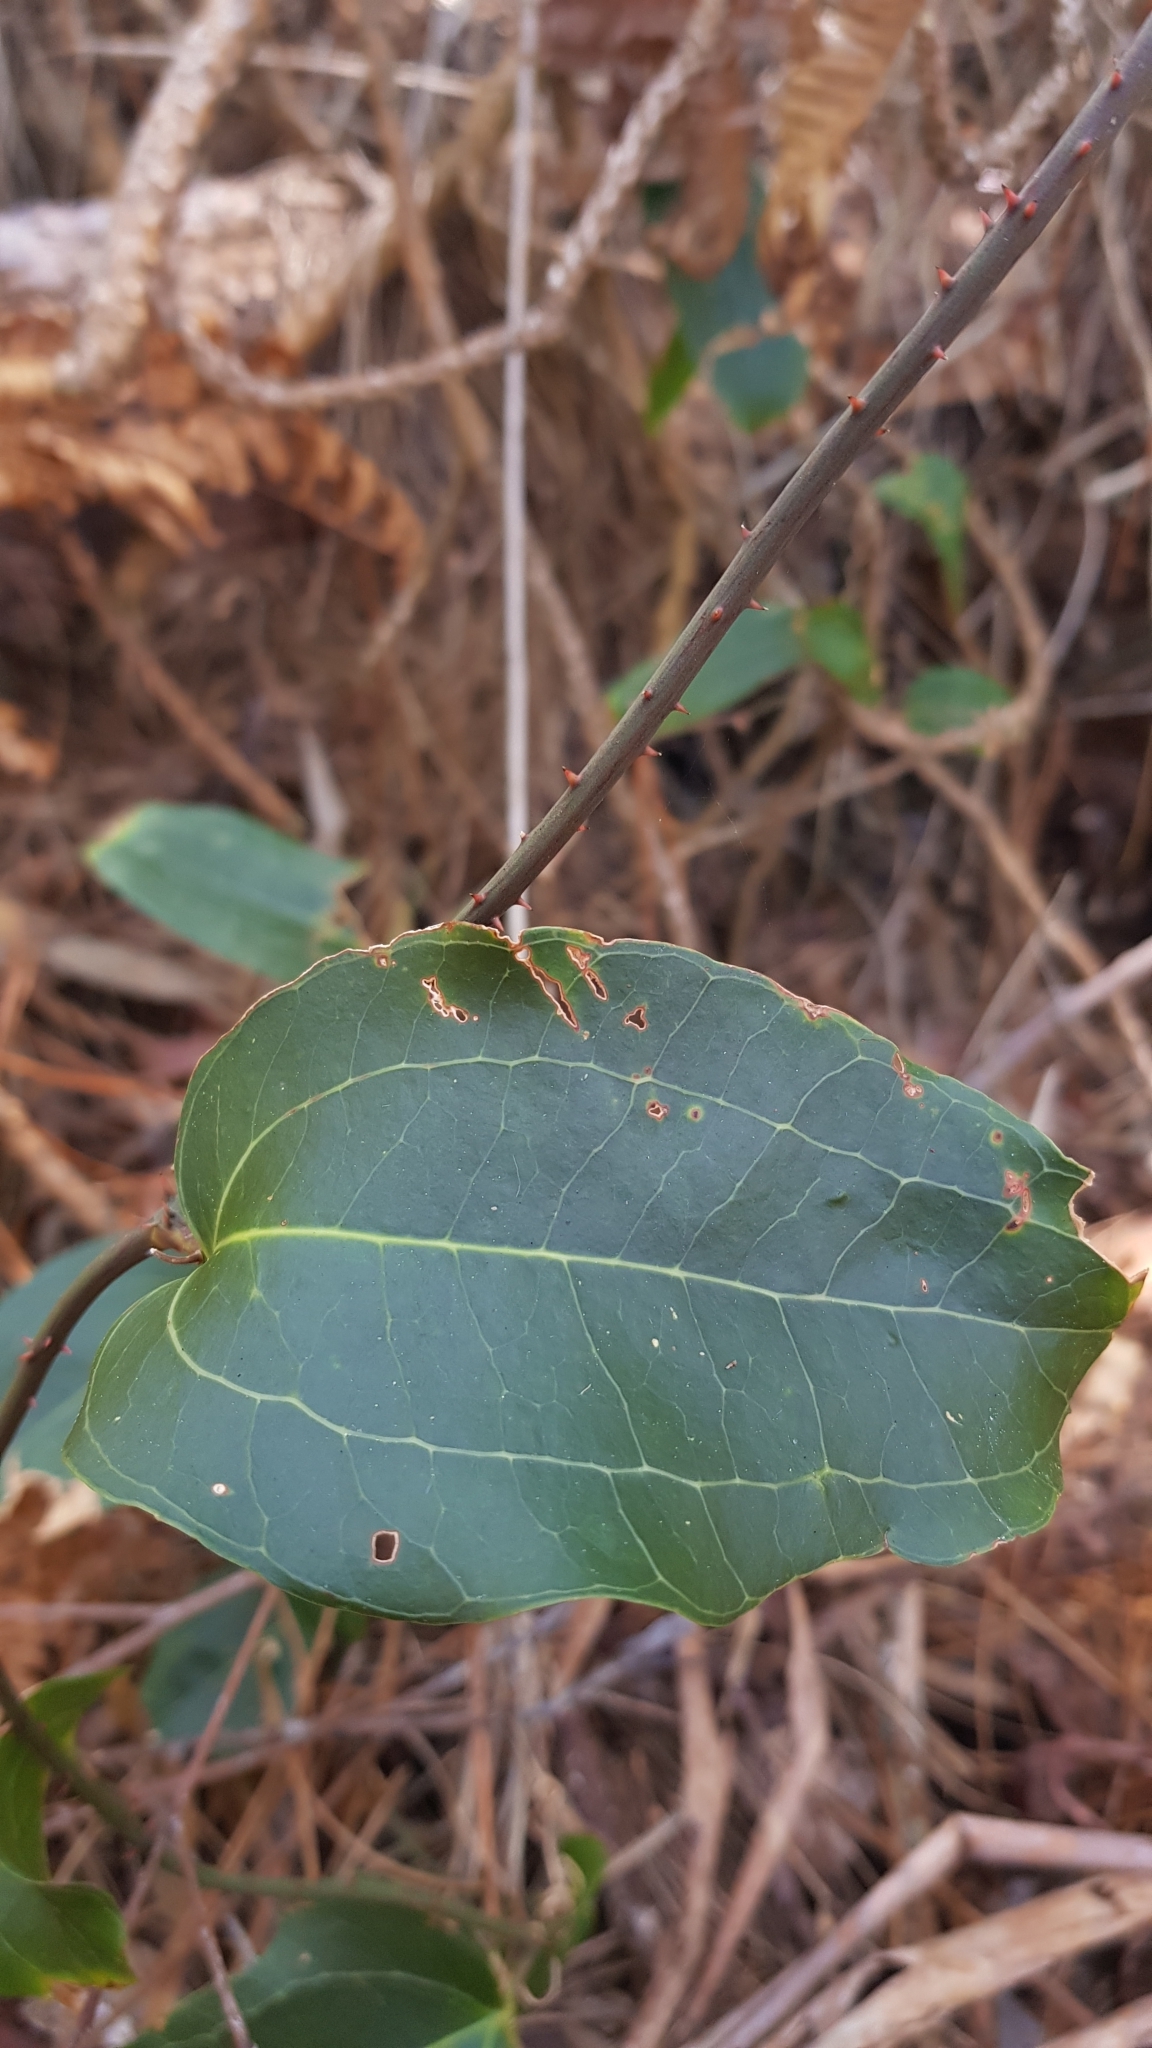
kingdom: Plantae
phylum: Tracheophyta
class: Liliopsida
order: Liliales
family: Smilacaceae
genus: Smilax
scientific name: Smilax australis
